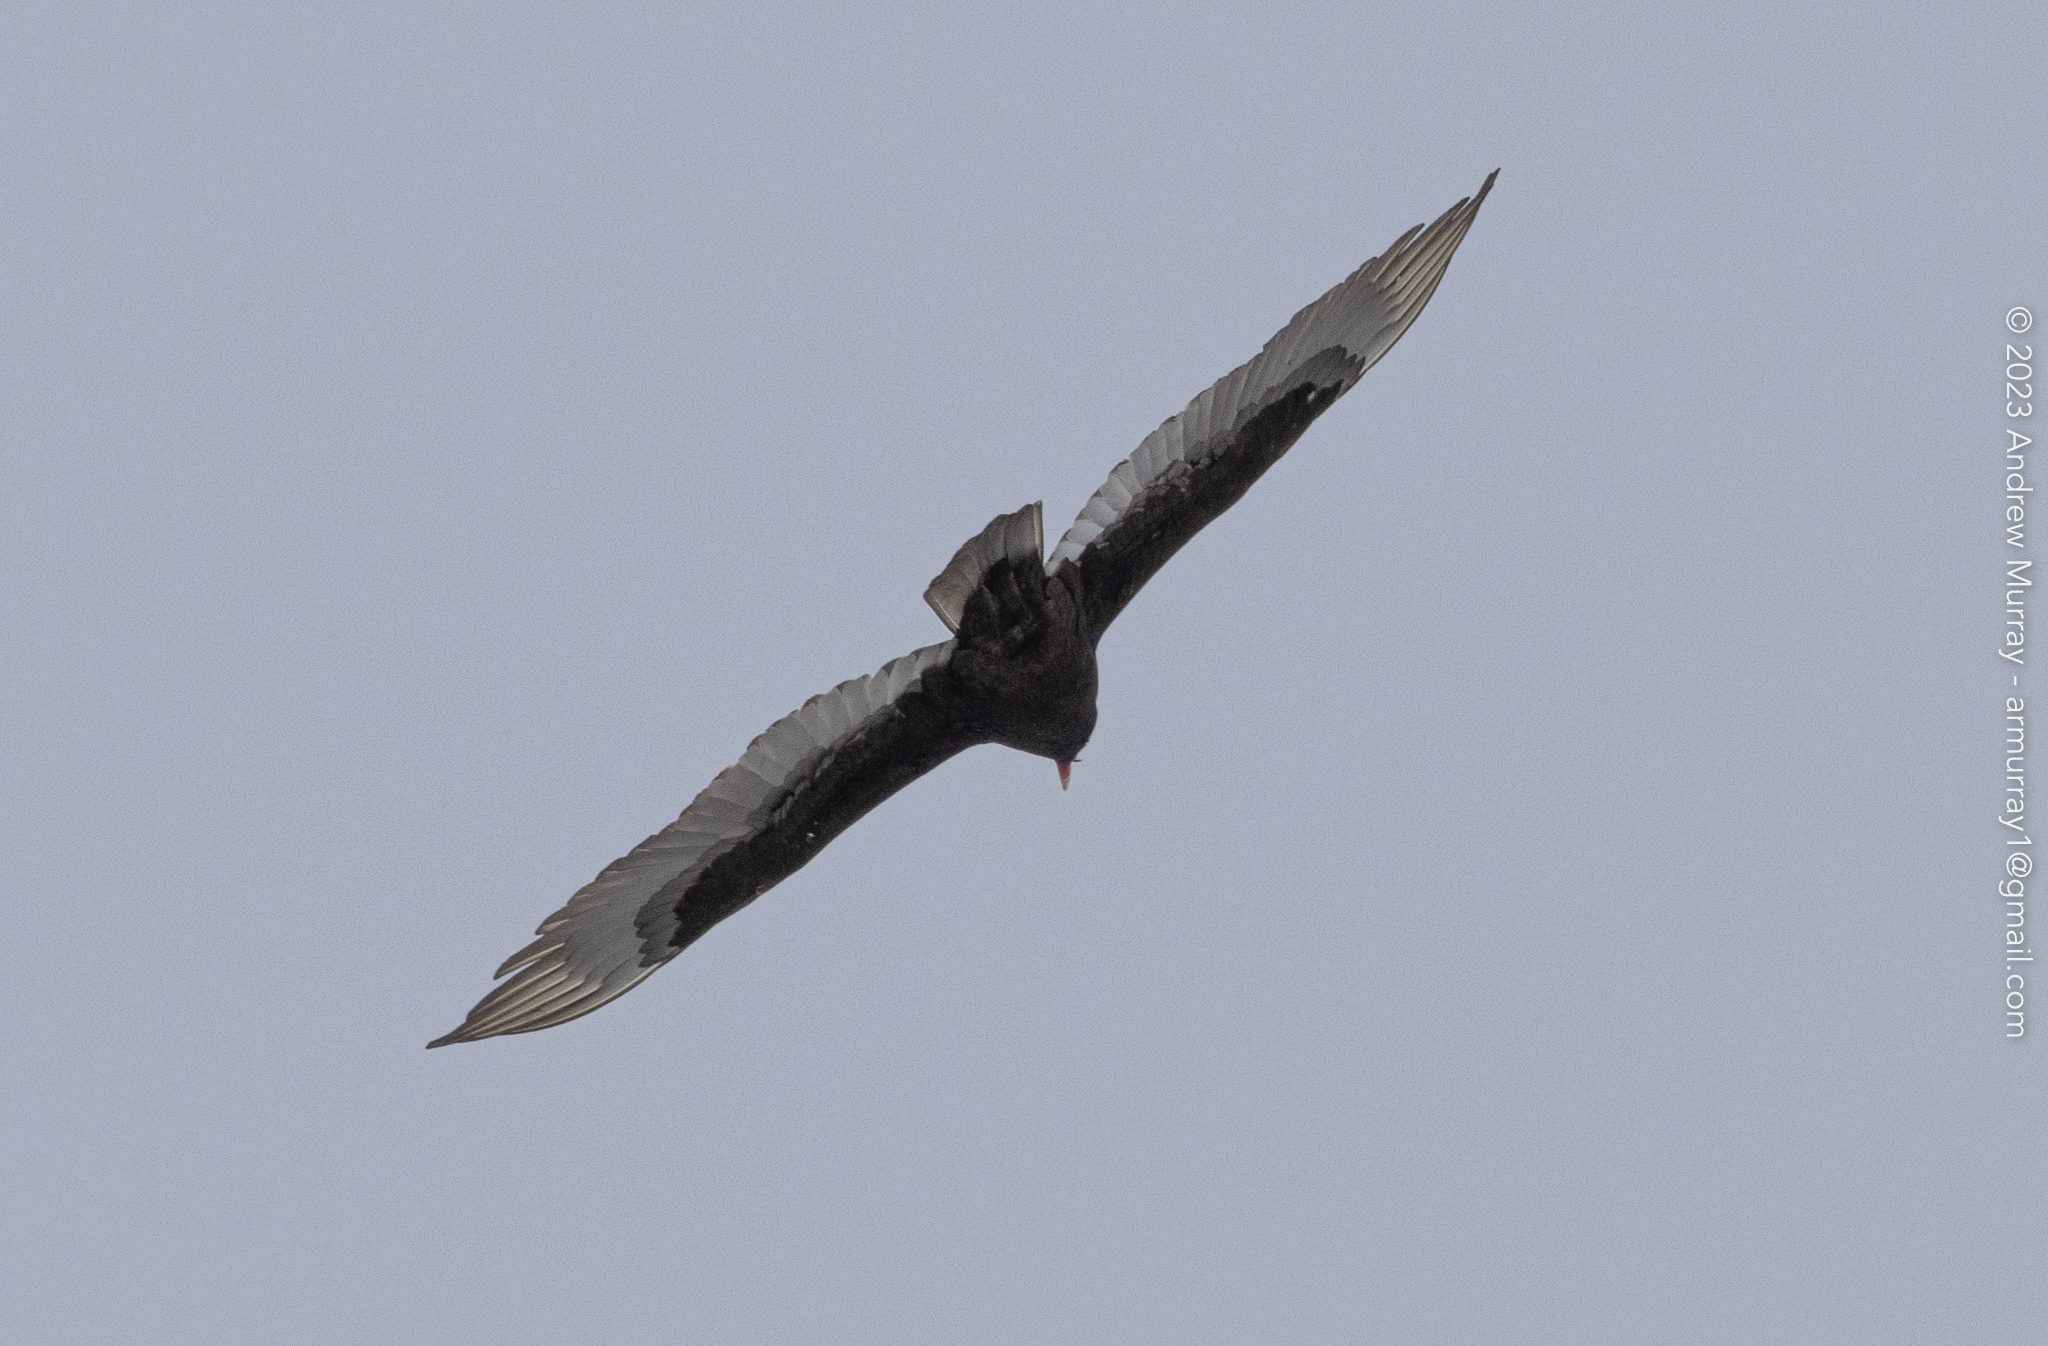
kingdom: Animalia
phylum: Chordata
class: Aves
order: Accipitriformes
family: Cathartidae
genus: Cathartes
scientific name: Cathartes aura
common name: Turkey vulture
